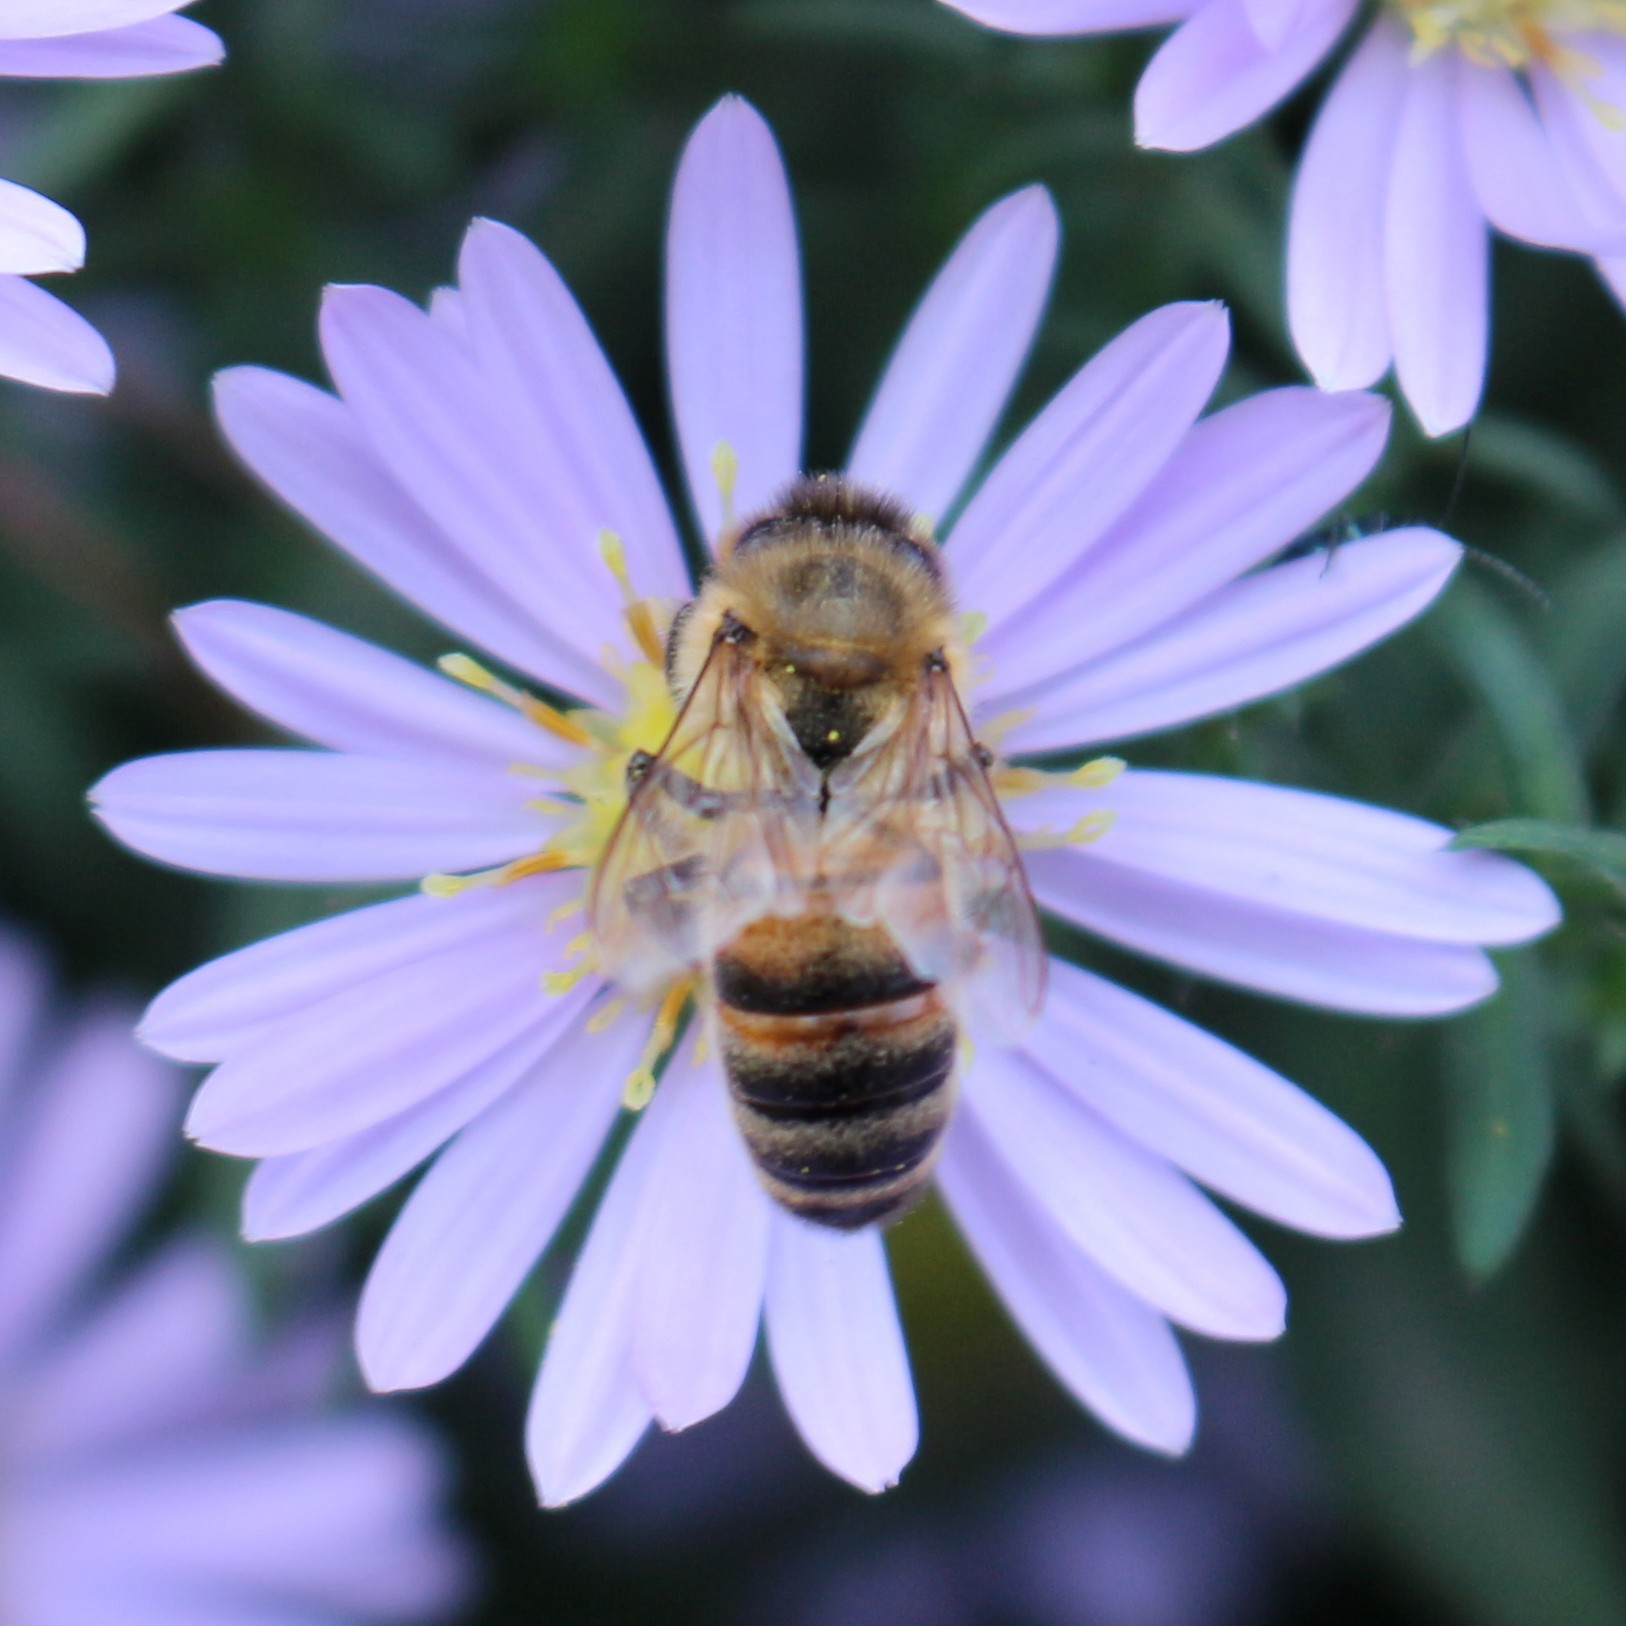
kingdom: Animalia
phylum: Arthropoda
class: Insecta
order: Hymenoptera
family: Apidae
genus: Apis
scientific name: Apis mellifera
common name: Honey bee
